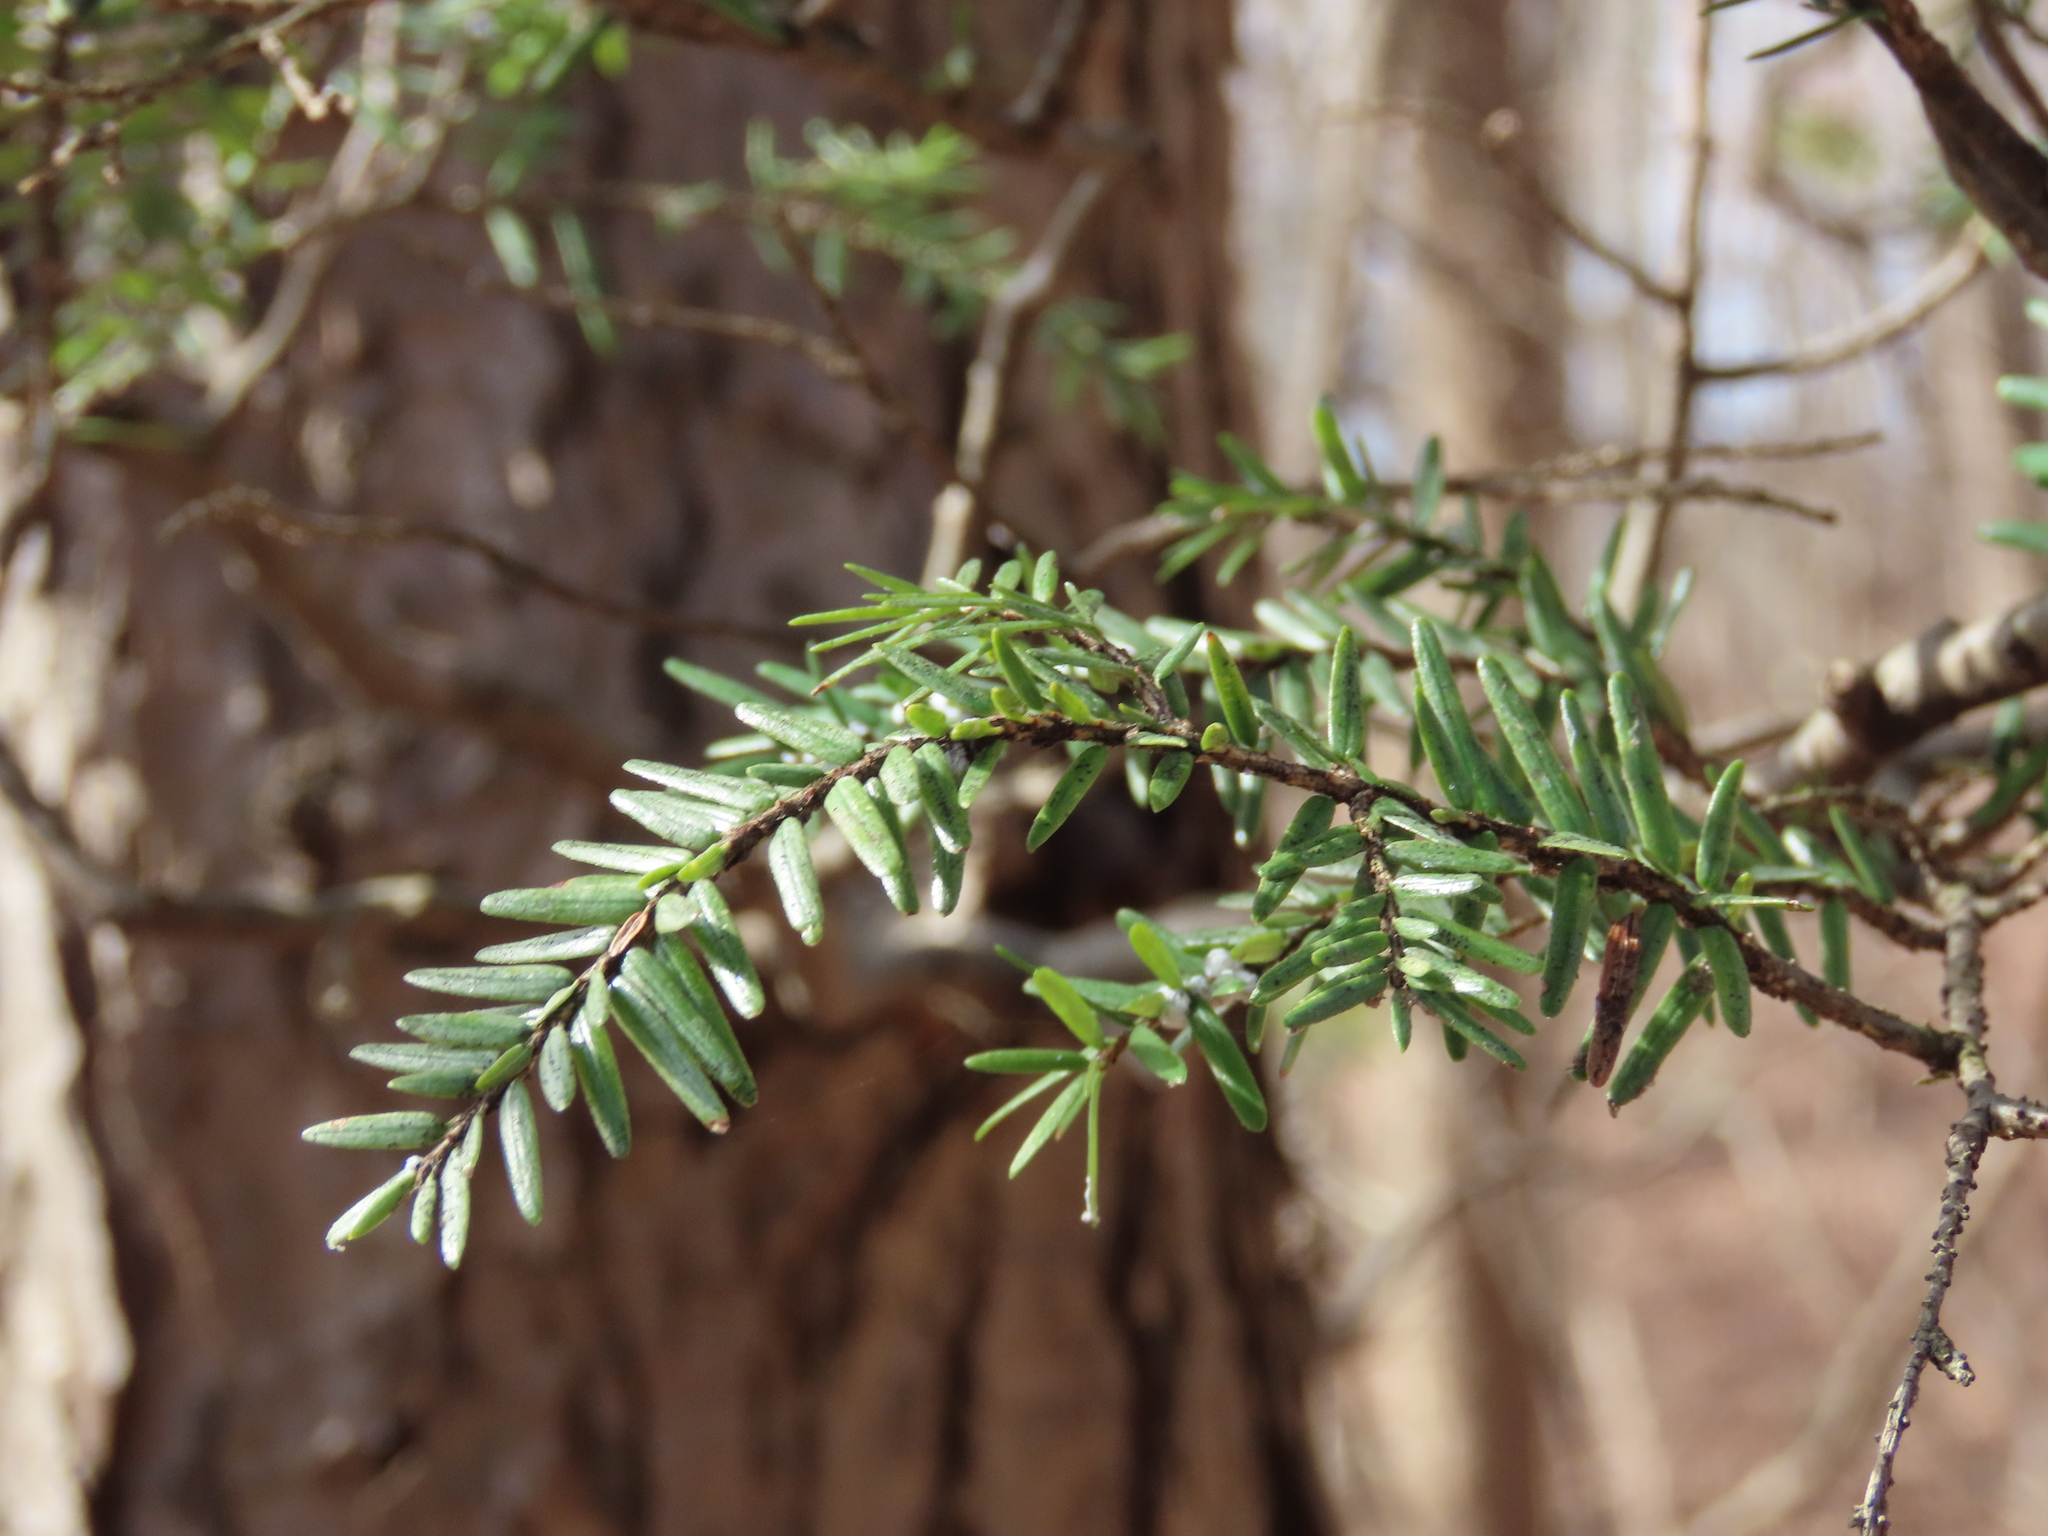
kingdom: Plantae
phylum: Tracheophyta
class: Pinopsida
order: Pinales
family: Pinaceae
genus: Tsuga
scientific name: Tsuga canadensis
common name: Eastern hemlock
